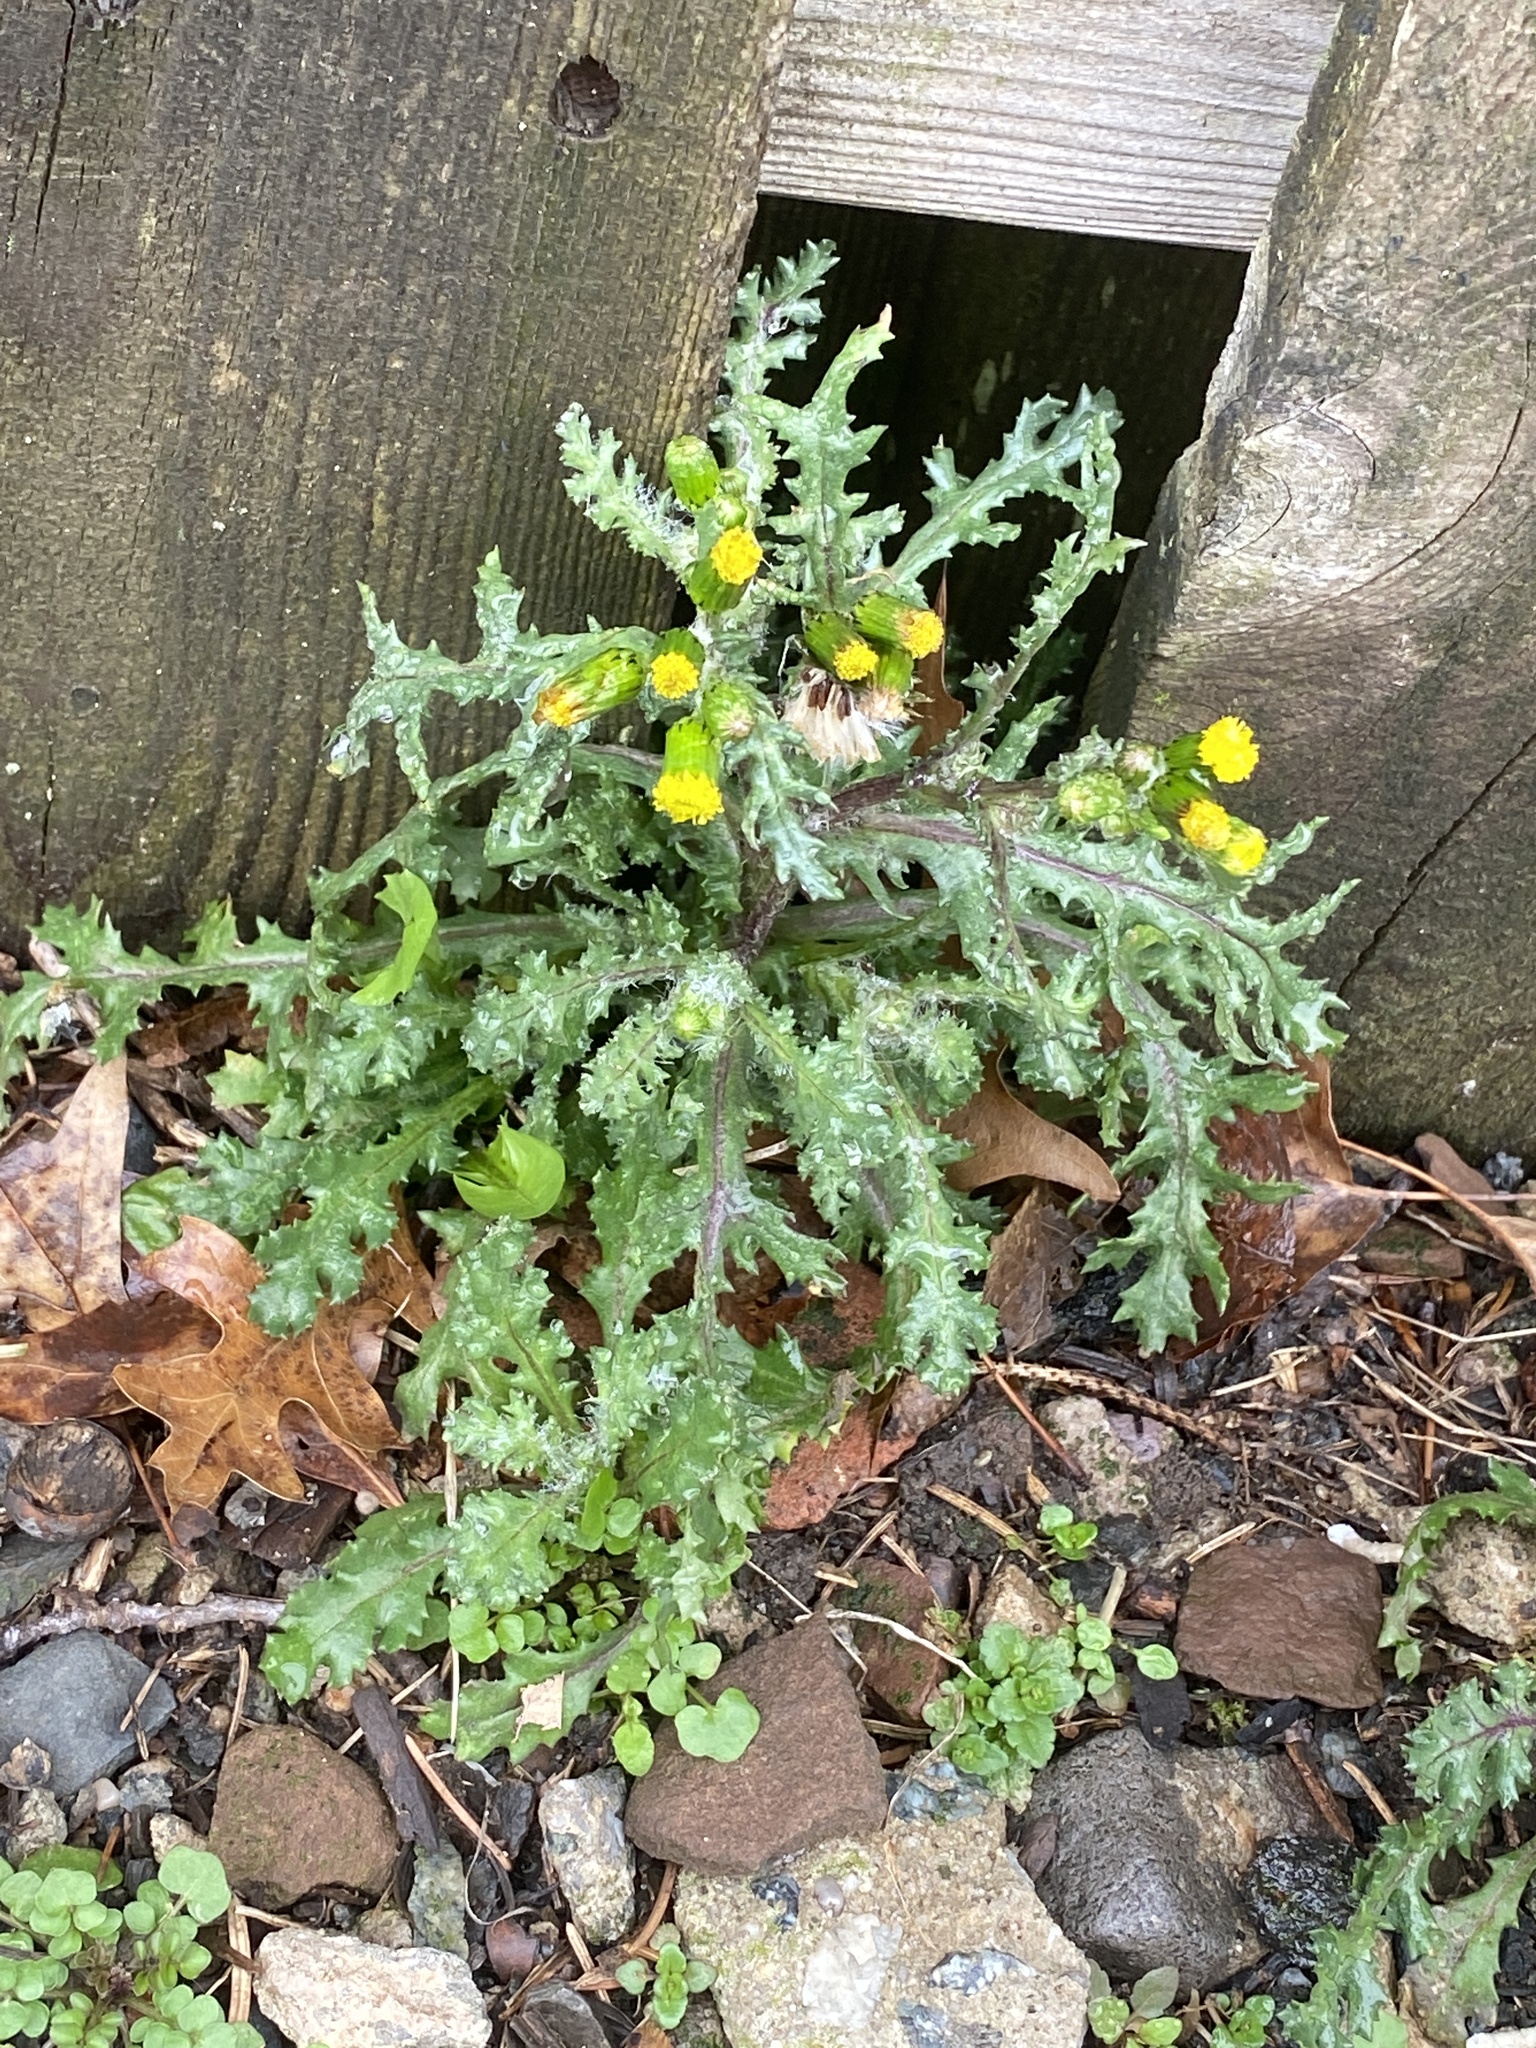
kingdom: Plantae
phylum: Tracheophyta
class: Magnoliopsida
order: Asterales
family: Asteraceae
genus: Senecio
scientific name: Senecio vulgaris
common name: Old-man-in-the-spring
